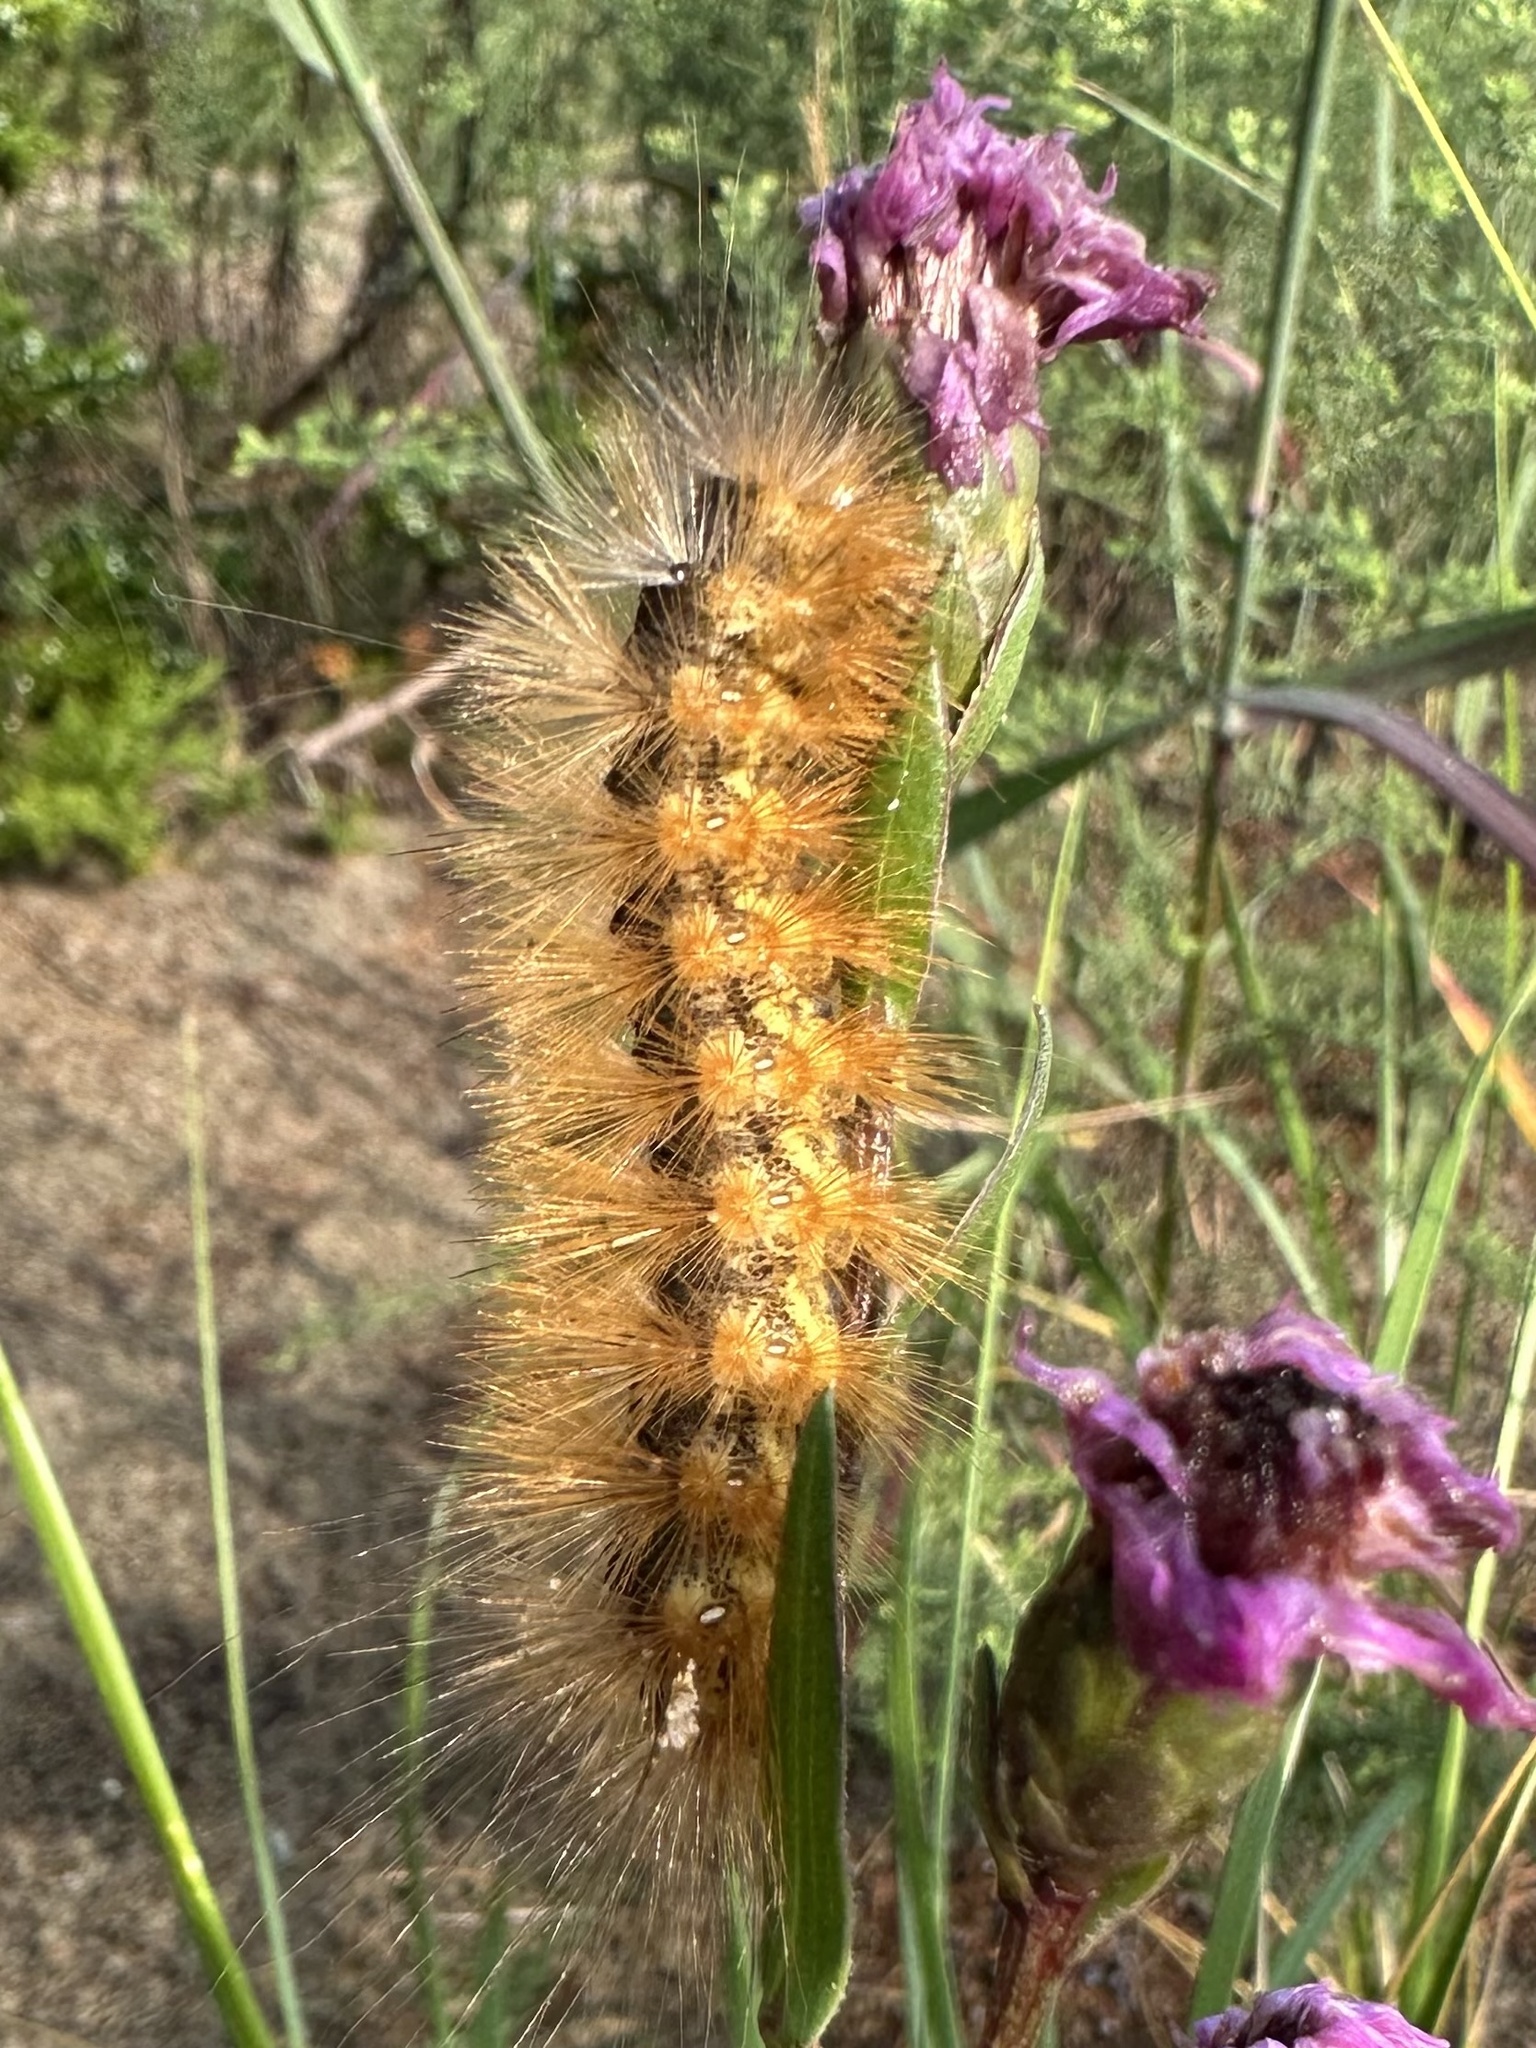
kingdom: Animalia
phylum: Arthropoda
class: Insecta
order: Lepidoptera
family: Erebidae
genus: Estigmene
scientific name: Estigmene acrea
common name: Salt marsh moth
